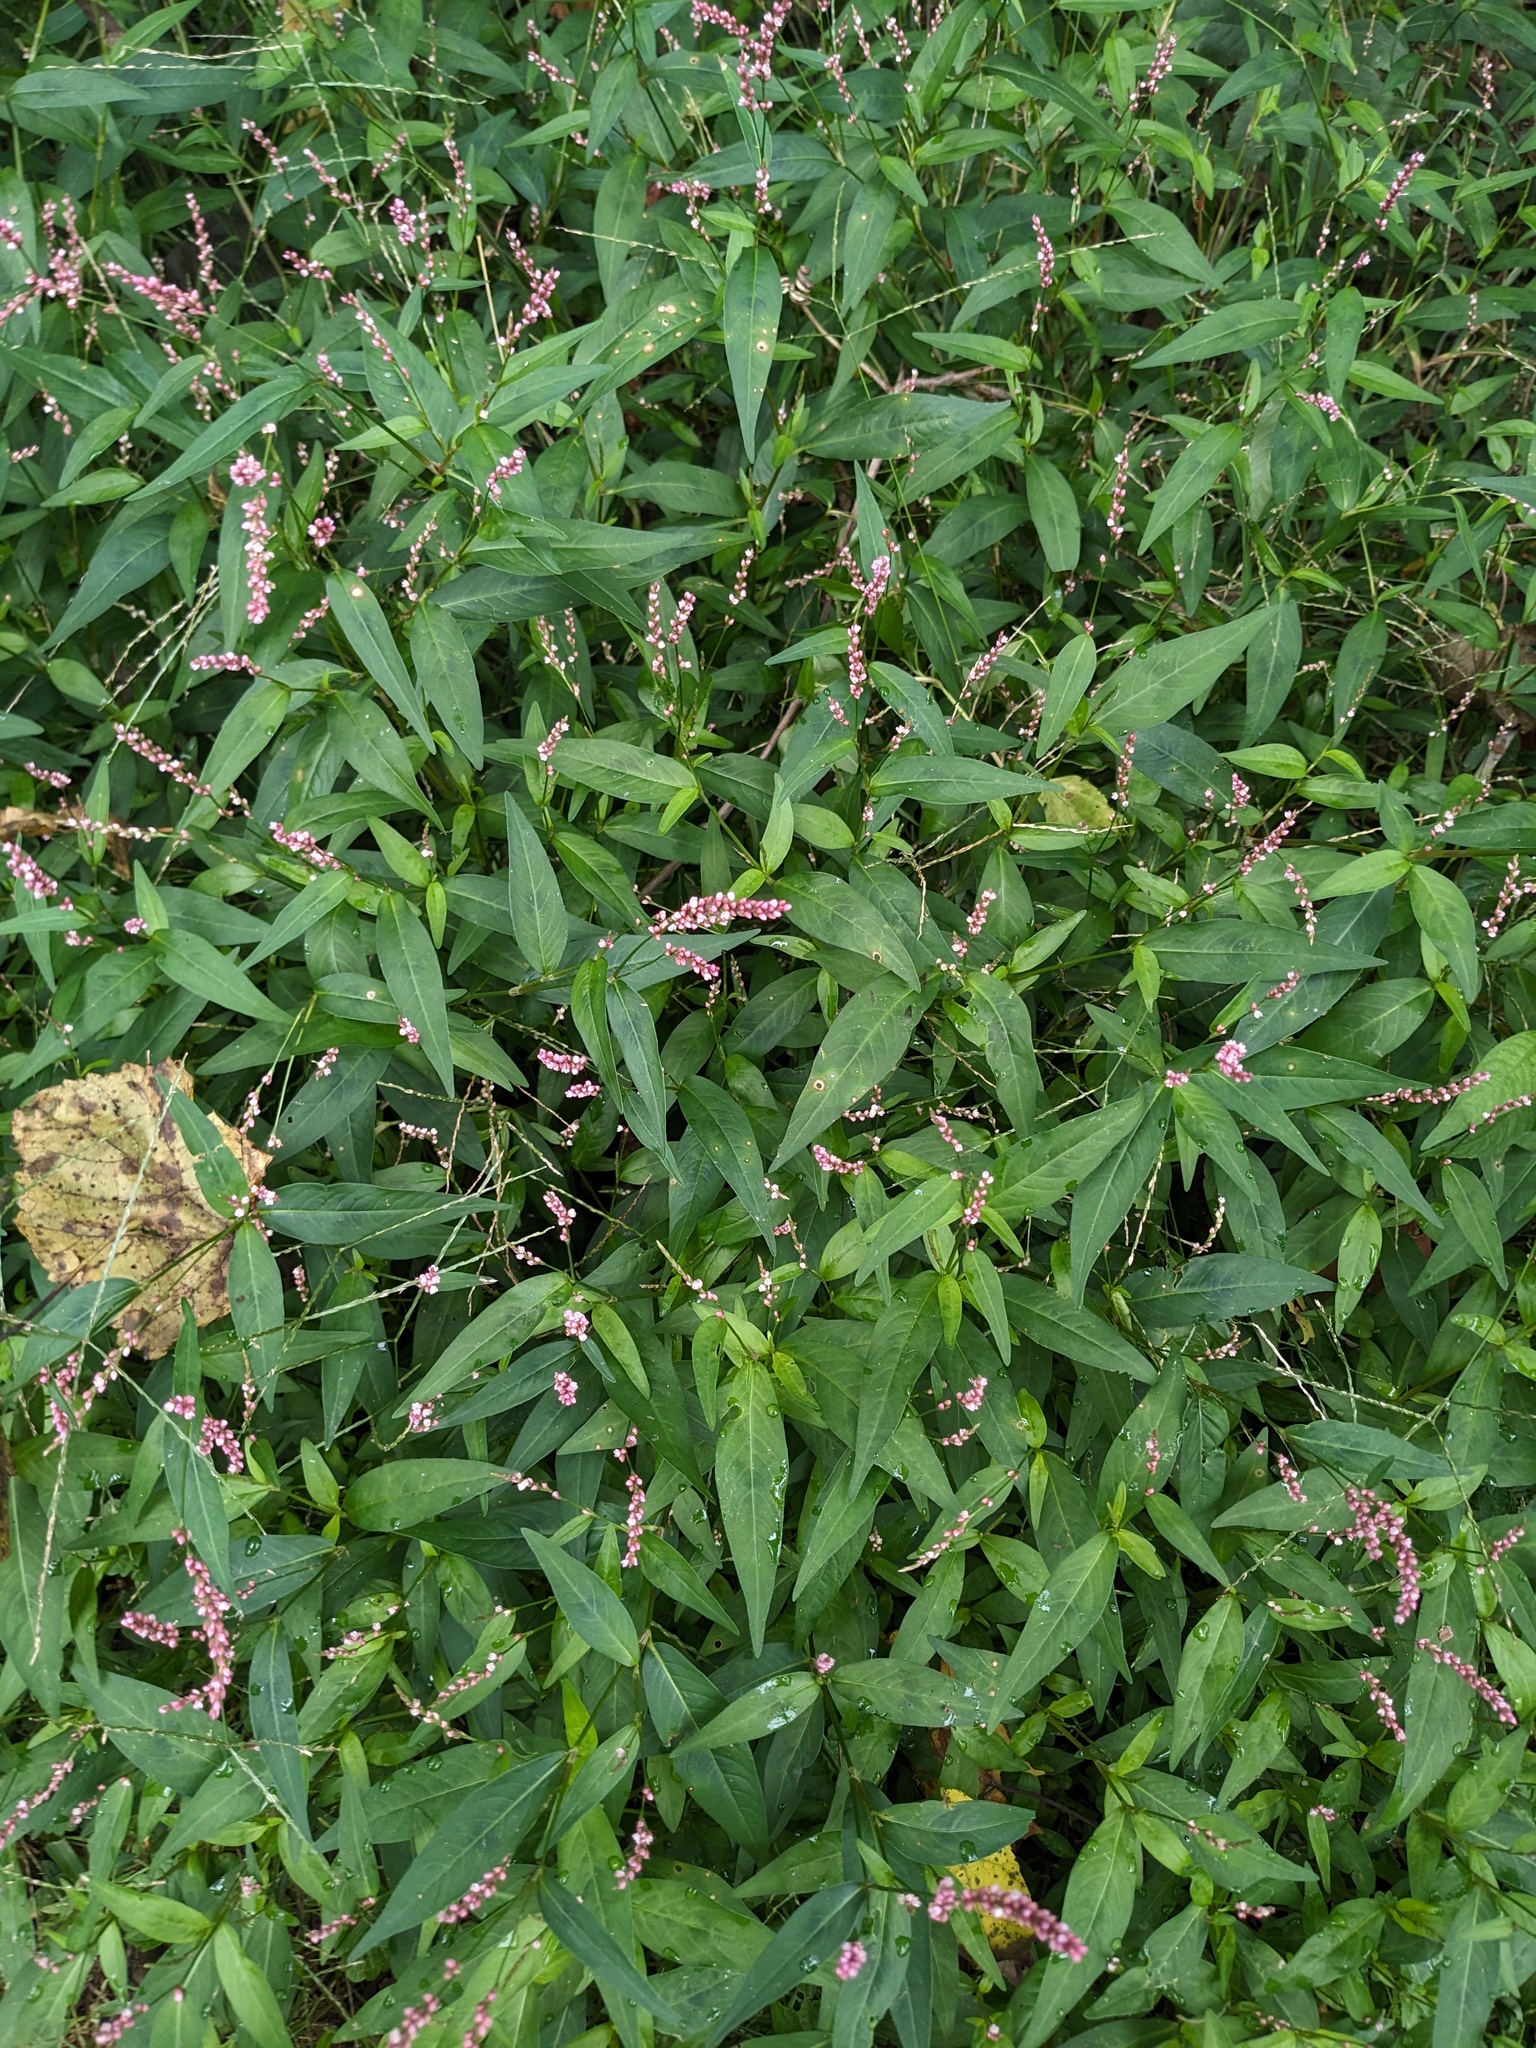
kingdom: Plantae
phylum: Tracheophyta
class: Magnoliopsida
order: Caryophyllales
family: Polygonaceae
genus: Persicaria
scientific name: Persicaria longiseta
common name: Bristly lady's-thumb
